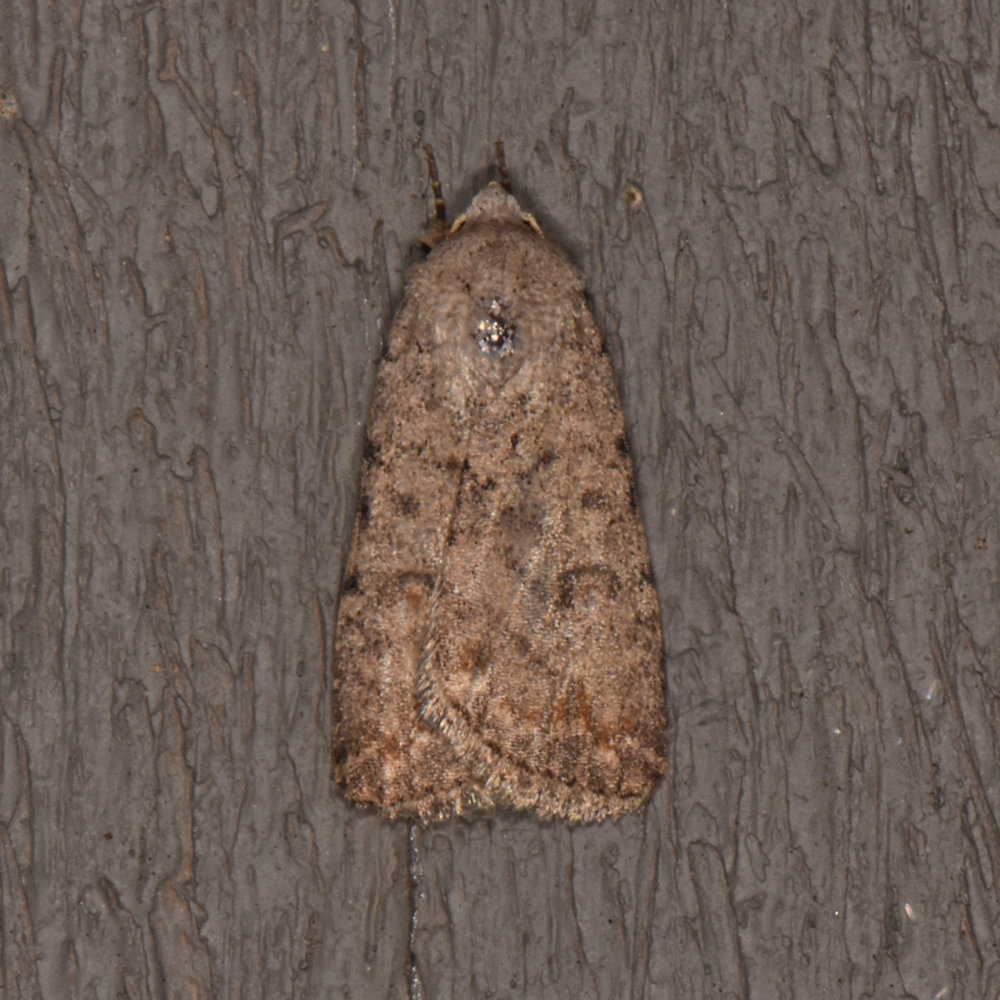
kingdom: Animalia
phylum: Arthropoda
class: Insecta
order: Lepidoptera
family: Noctuidae
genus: Caradrina
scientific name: Caradrina clavipalpis
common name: Pale mottled willow
